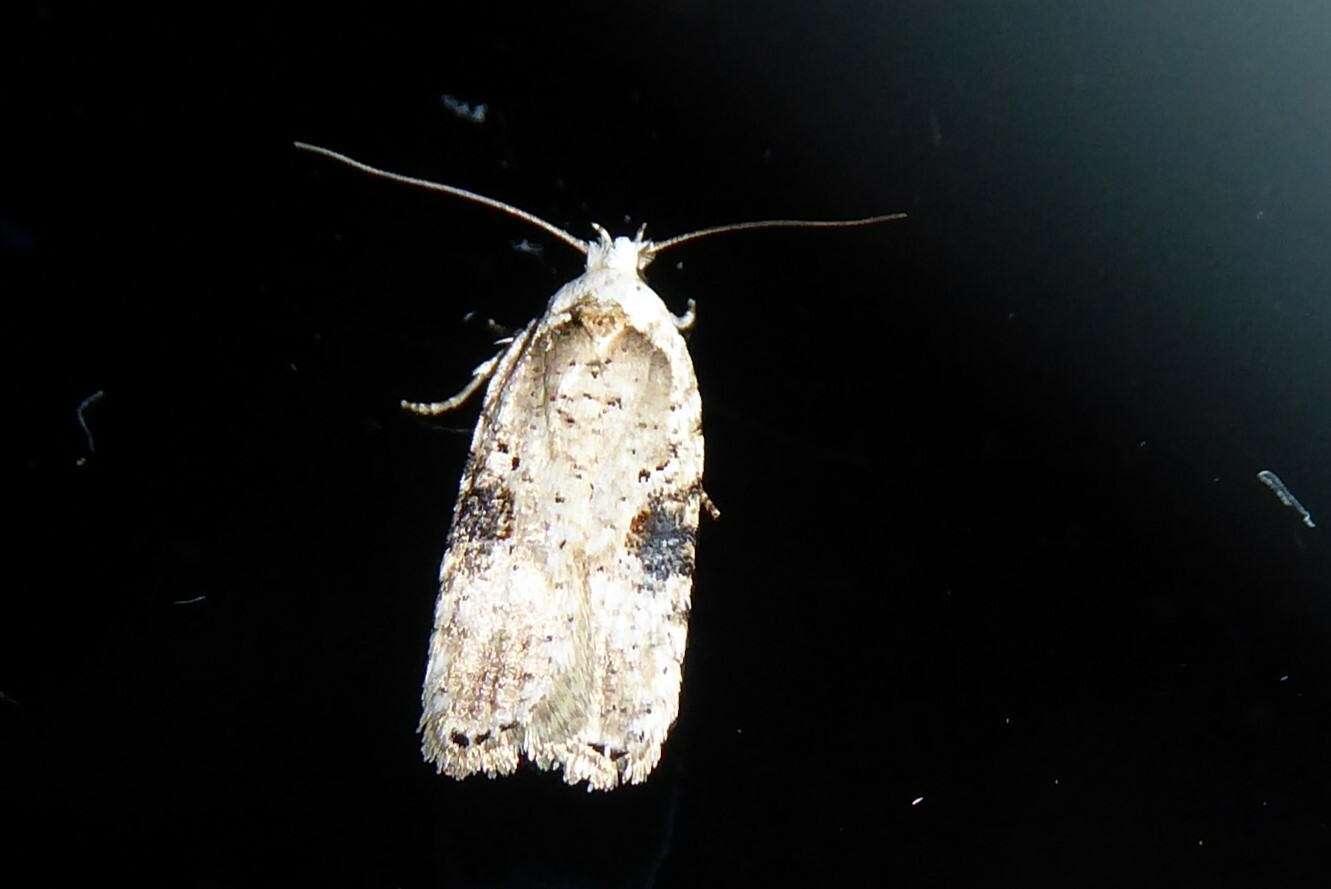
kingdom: Animalia
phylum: Arthropoda
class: Insecta
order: Lepidoptera
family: Depressariidae
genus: Agonopterix
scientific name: Agonopterix alstroemeriana
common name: Moth
